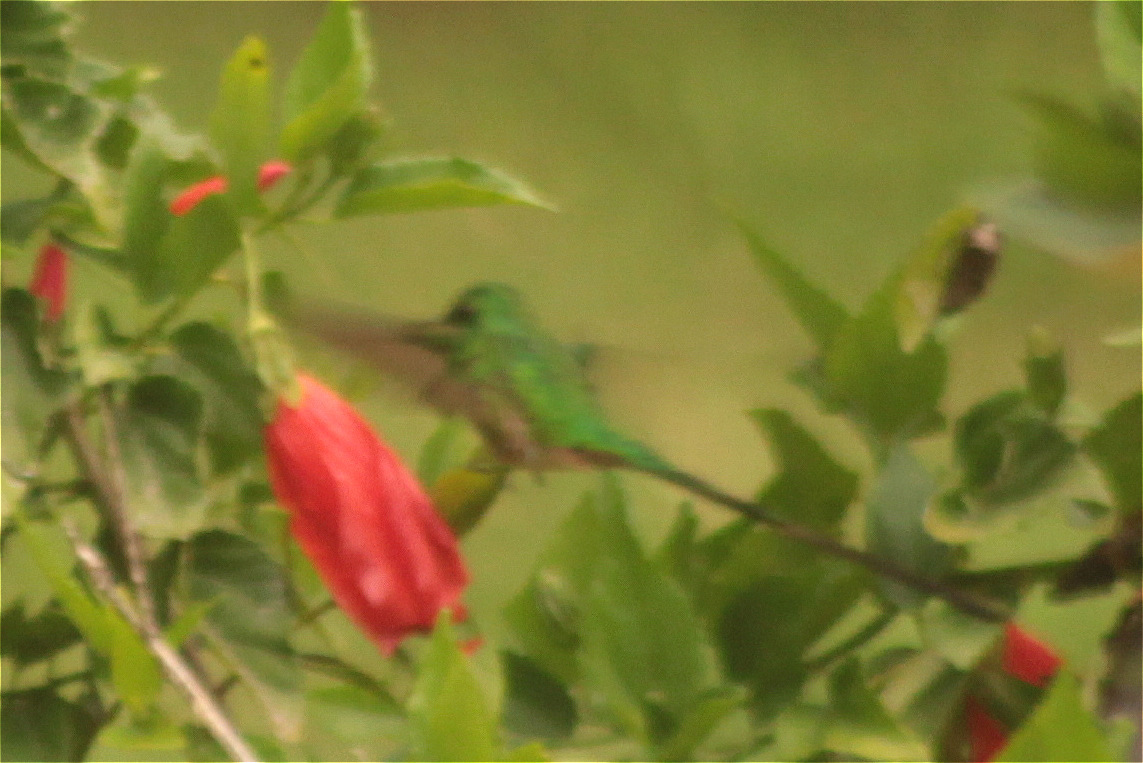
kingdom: Animalia
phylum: Chordata
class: Aves
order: Apodiformes
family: Trochilidae
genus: Lesbia
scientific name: Lesbia nuna
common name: Green-tailed trainbearer
